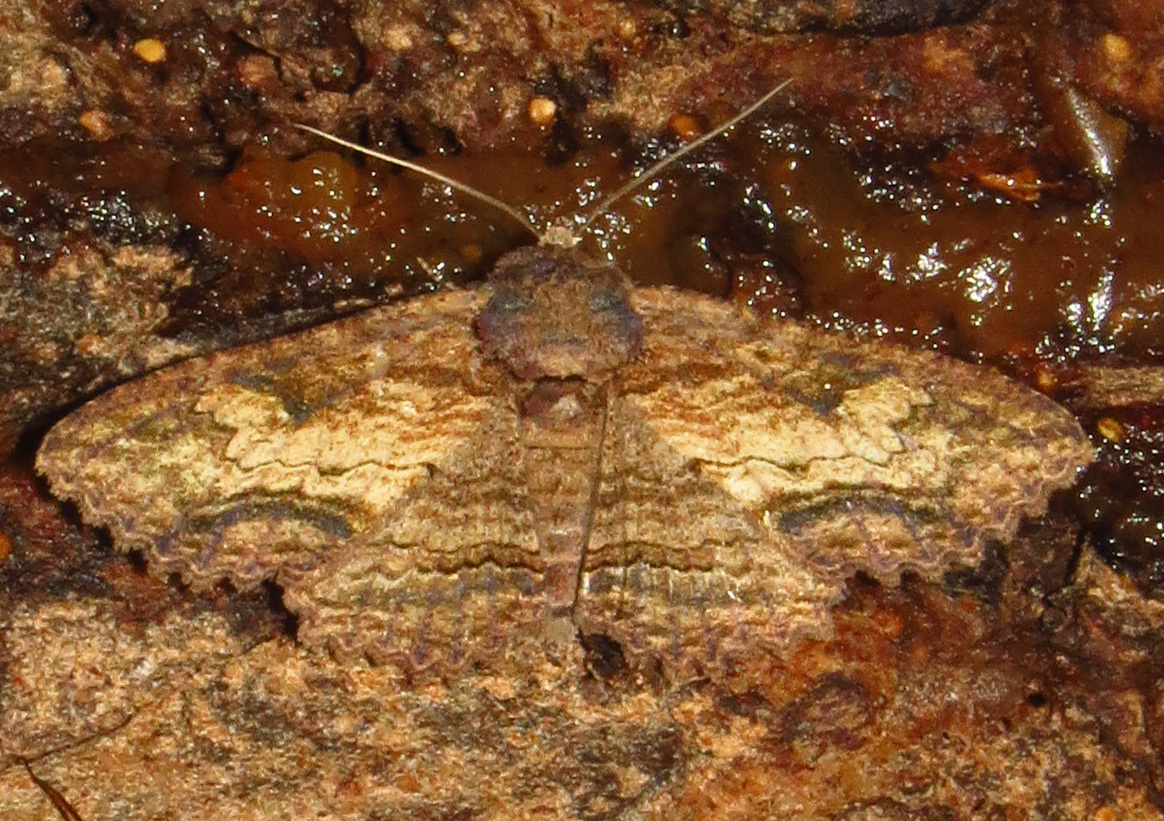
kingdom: Animalia
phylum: Arthropoda
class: Insecta
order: Lepidoptera
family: Erebidae
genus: Zale
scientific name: Zale lunata
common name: Lunate zale moth
